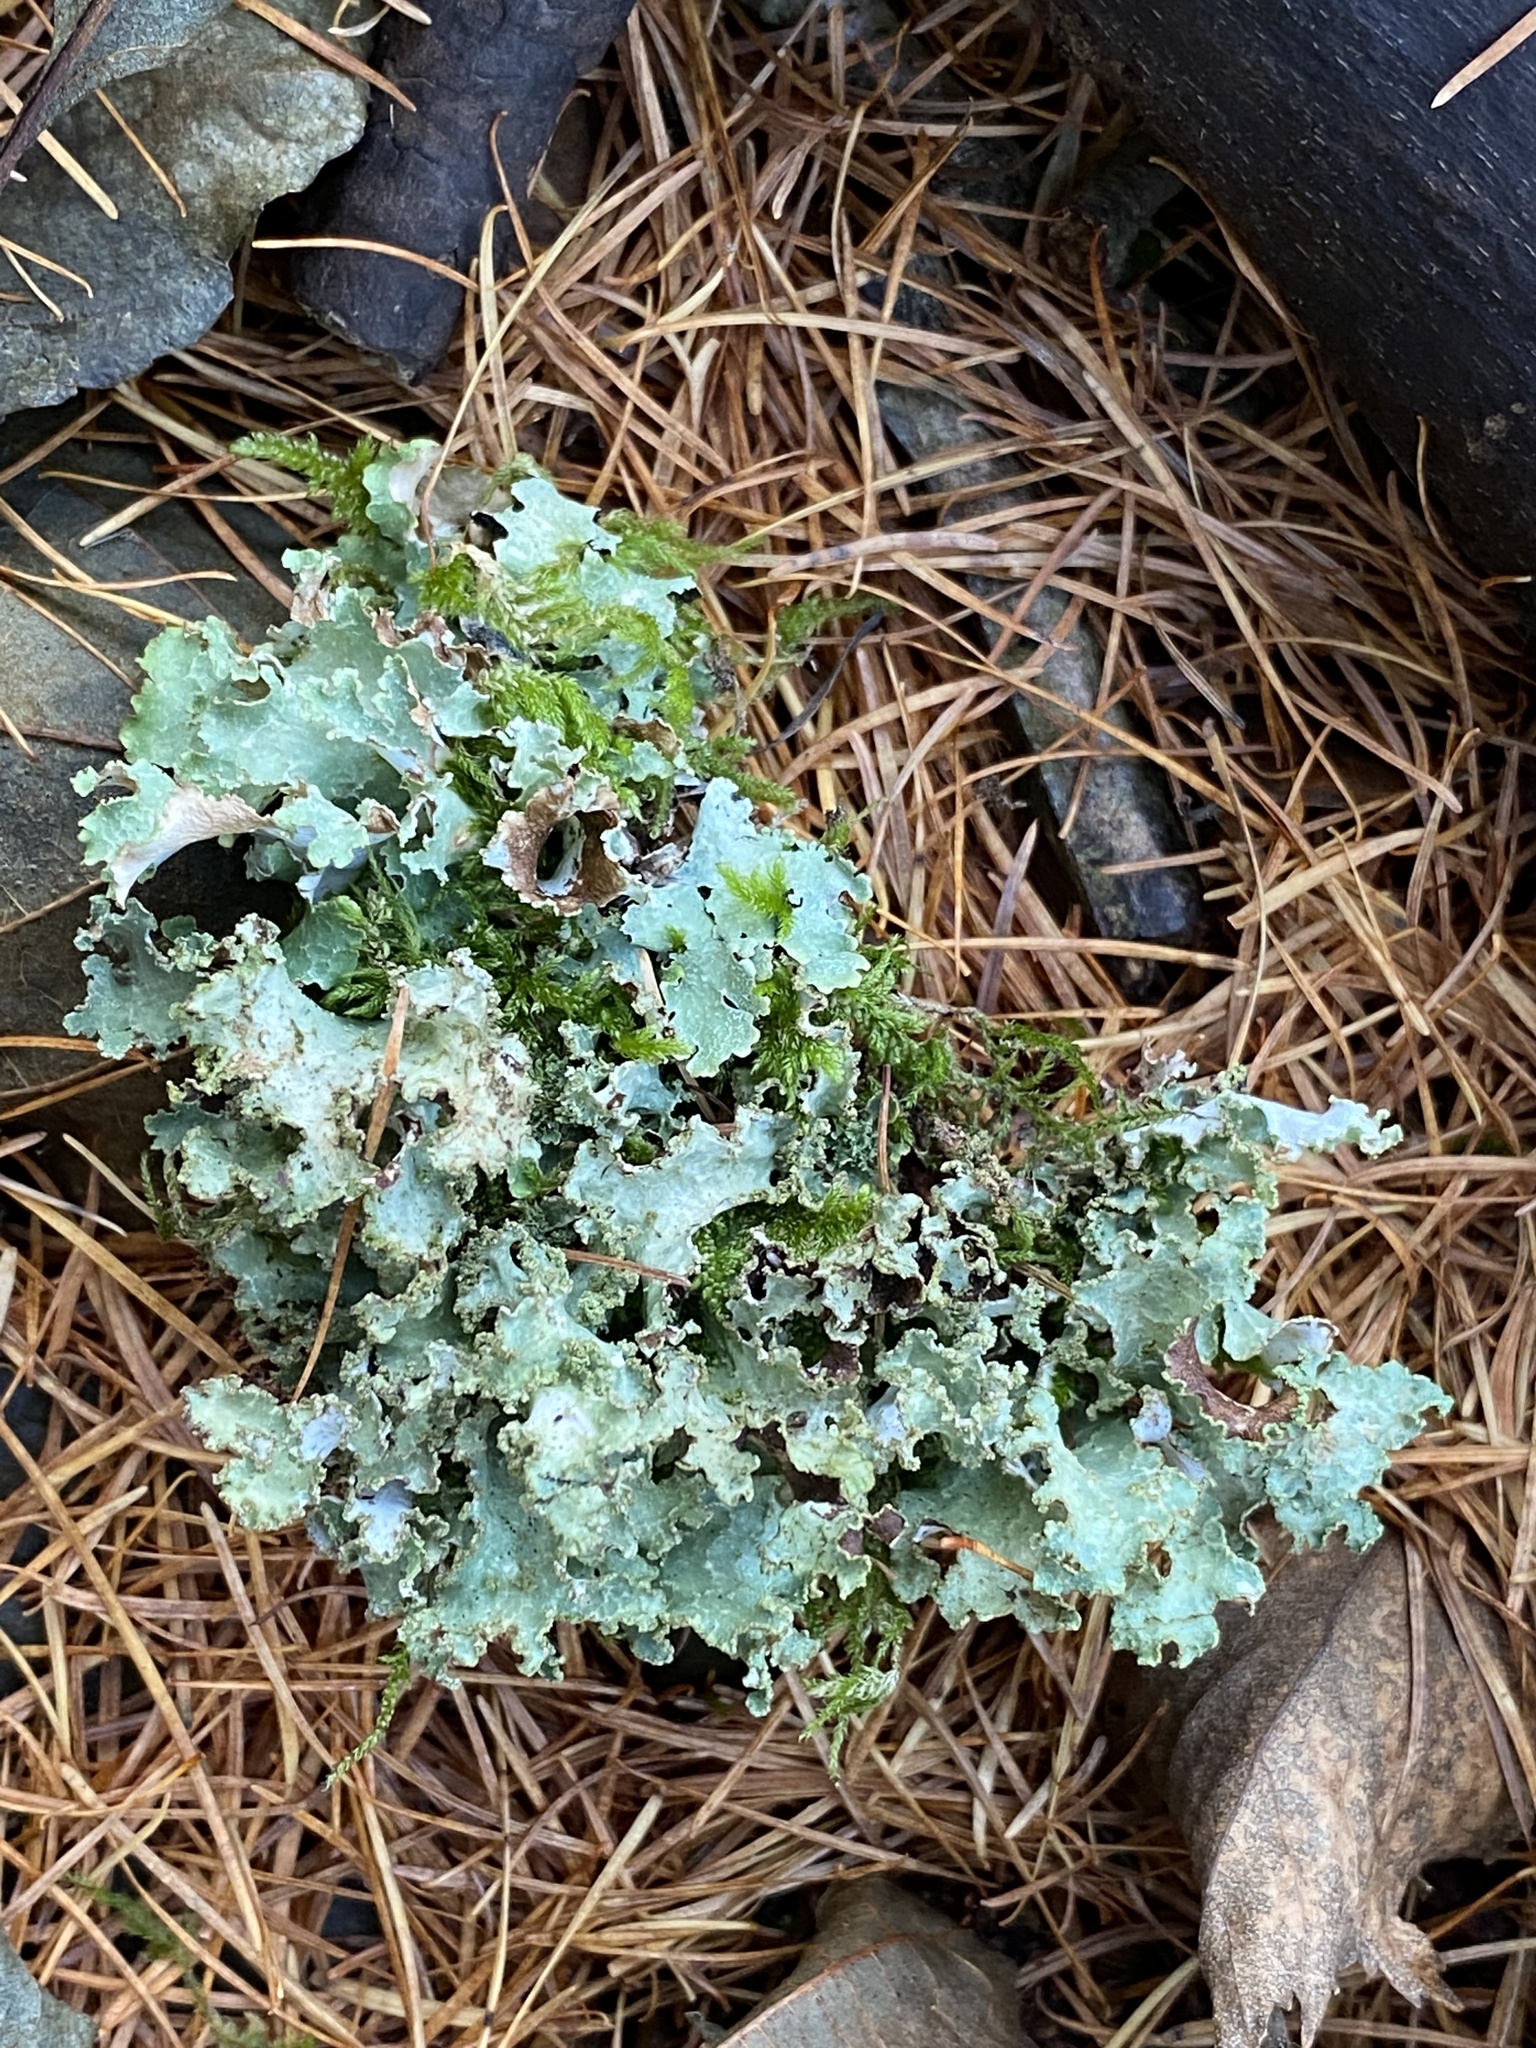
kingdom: Fungi
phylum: Ascomycota
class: Lecanoromycetes
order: Lecanorales
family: Parmeliaceae
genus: Platismatia
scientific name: Platismatia glauca
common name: Varied rag lichen
